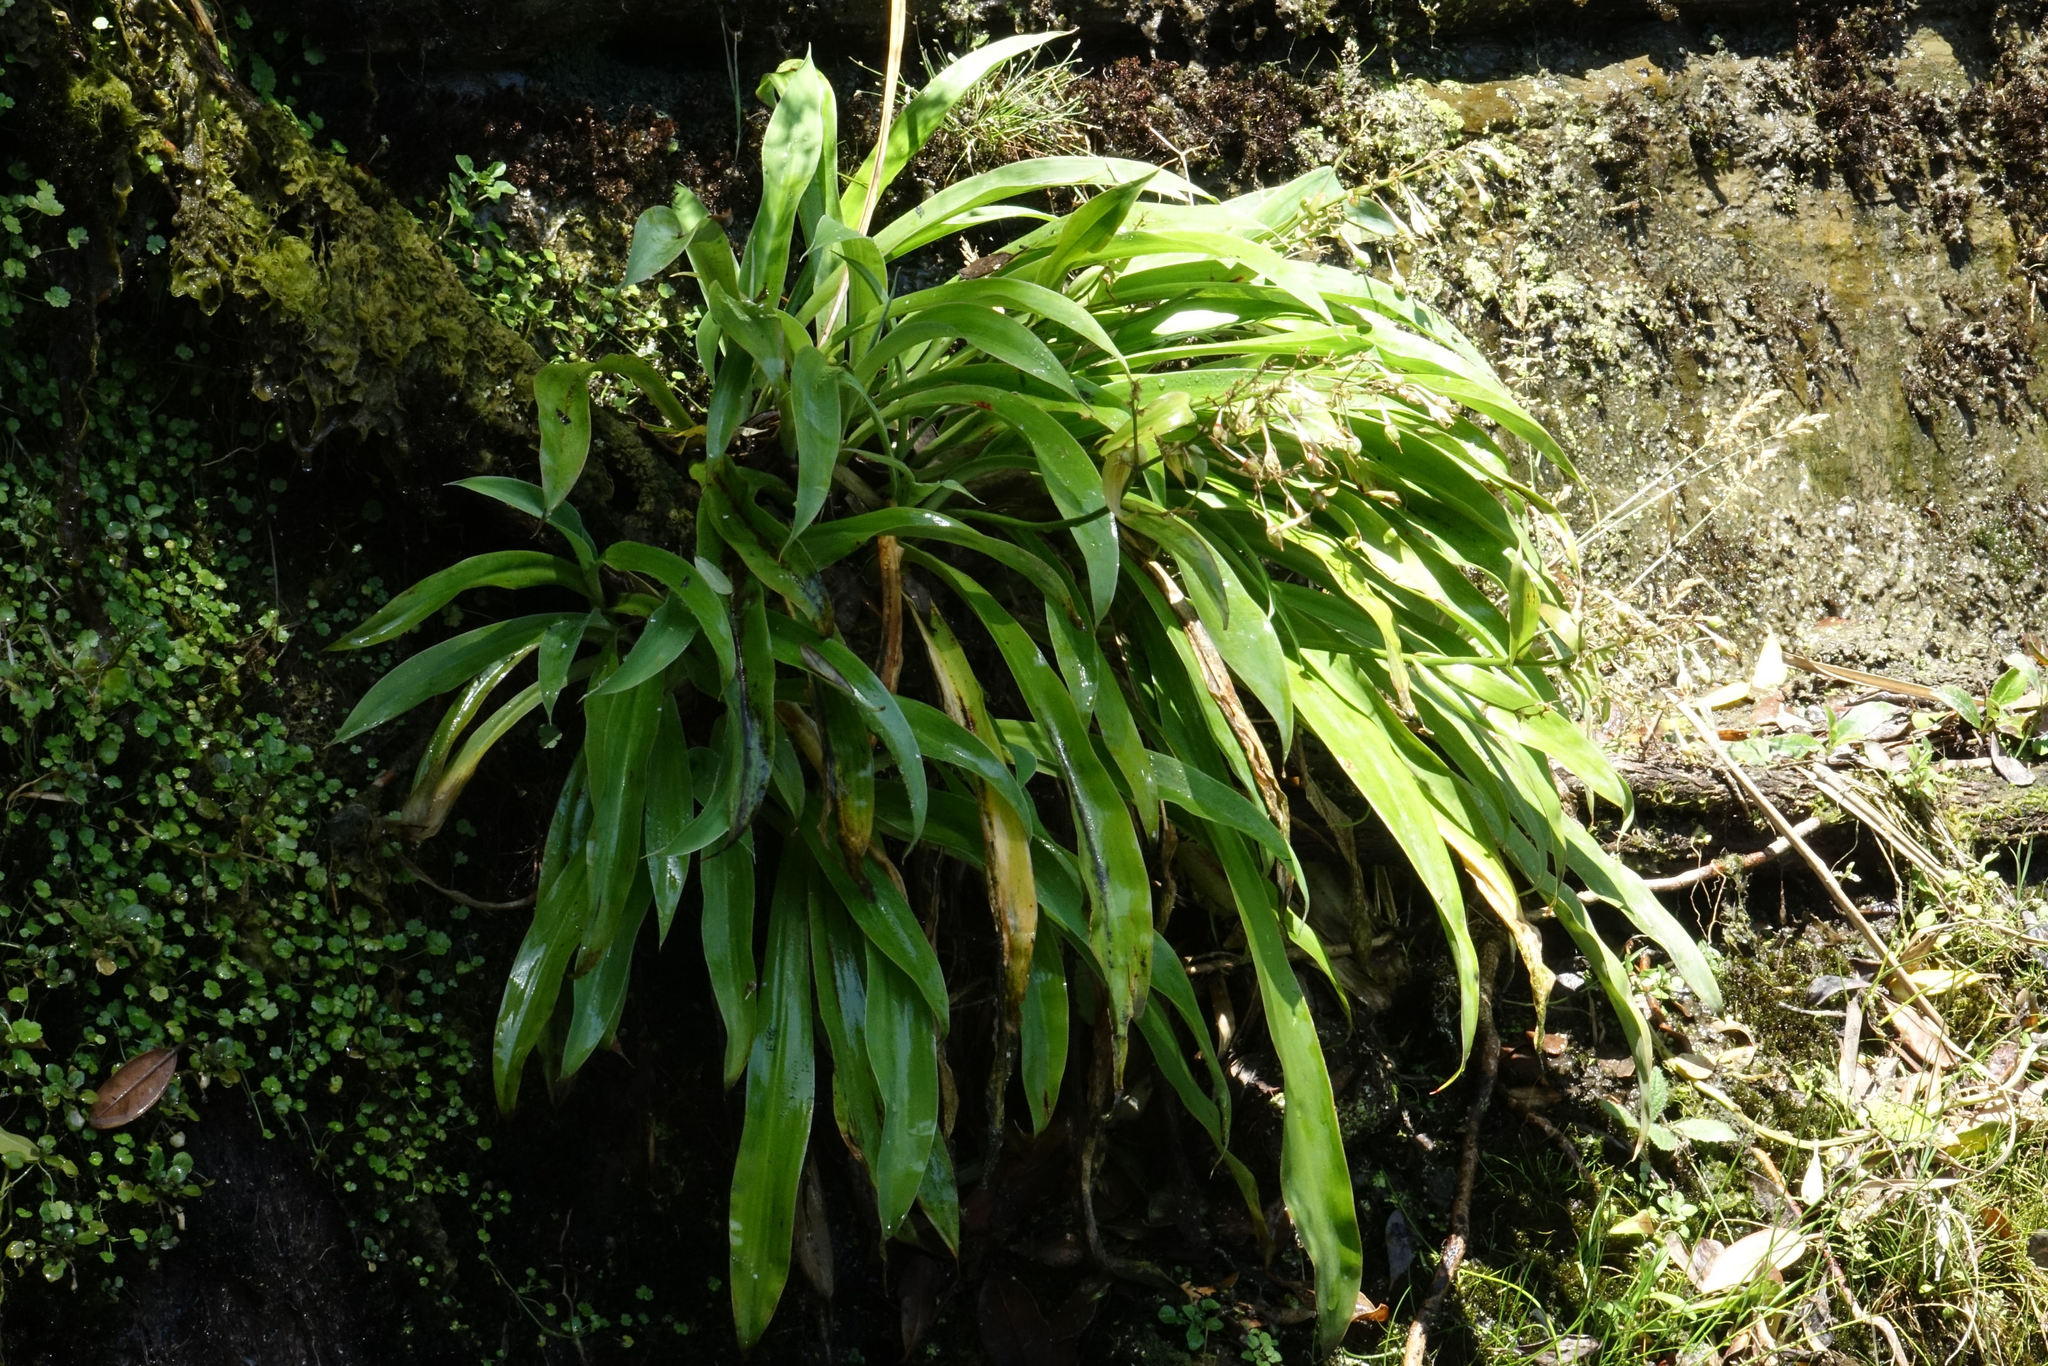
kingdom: Plantae
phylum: Tracheophyta
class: Liliopsida
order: Asparagales
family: Asparagaceae
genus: Arthropodium
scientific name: Arthropodium cirratum
